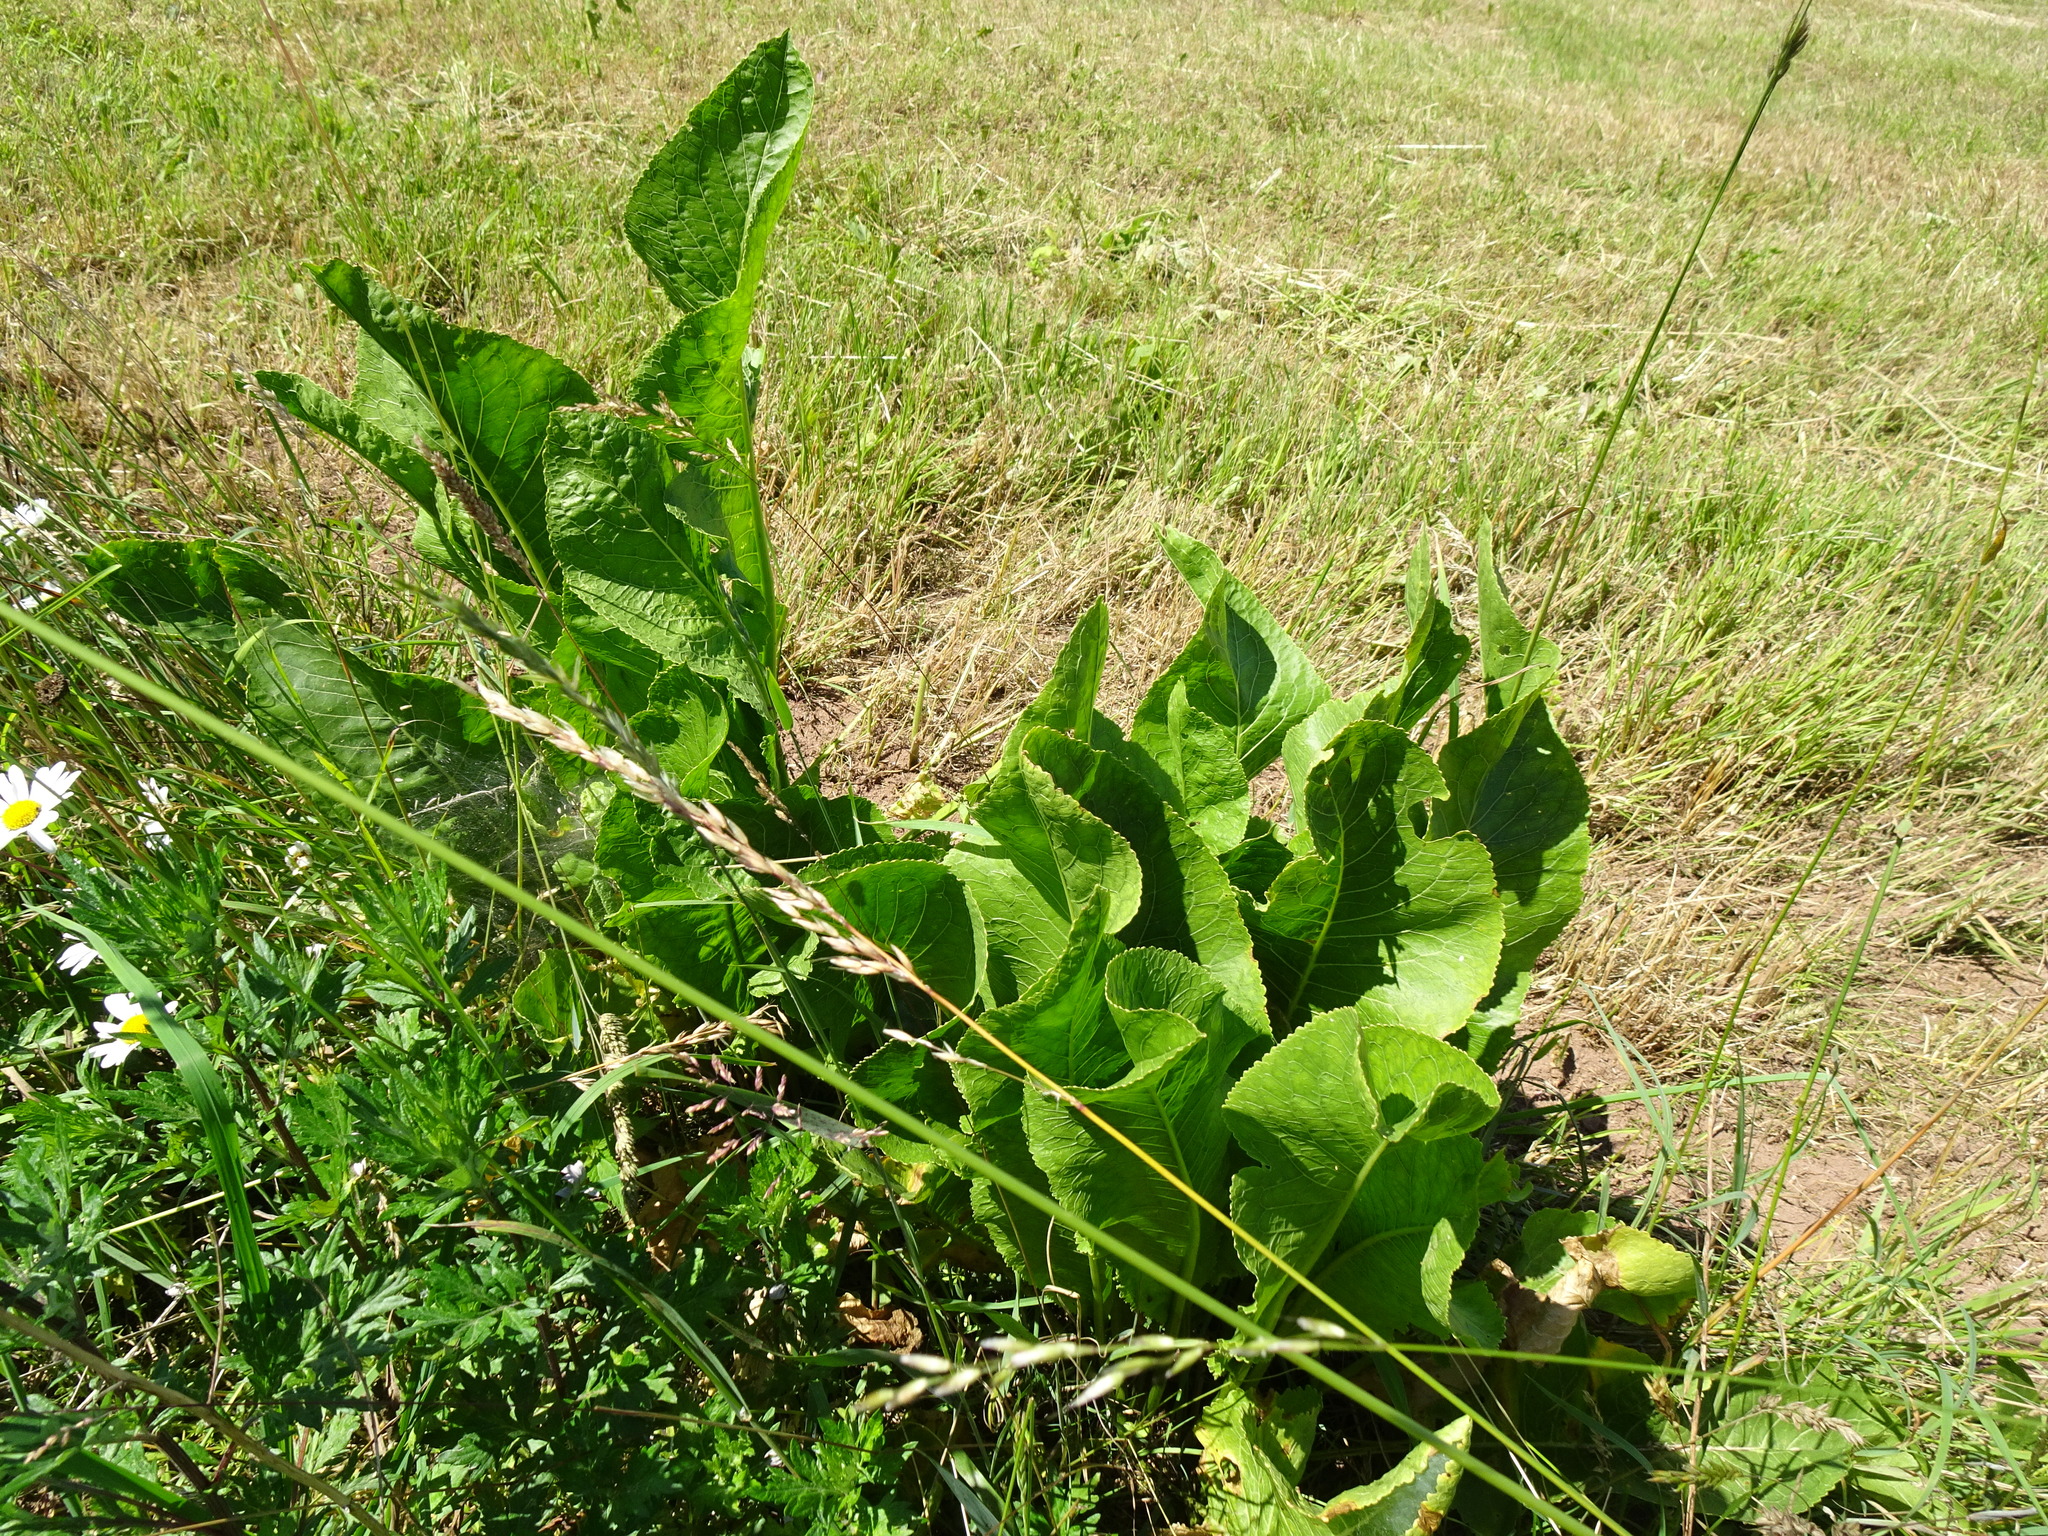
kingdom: Plantae
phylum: Tracheophyta
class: Magnoliopsida
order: Brassicales
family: Brassicaceae
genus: Armoracia
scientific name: Armoracia rusticana
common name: Horseradish
